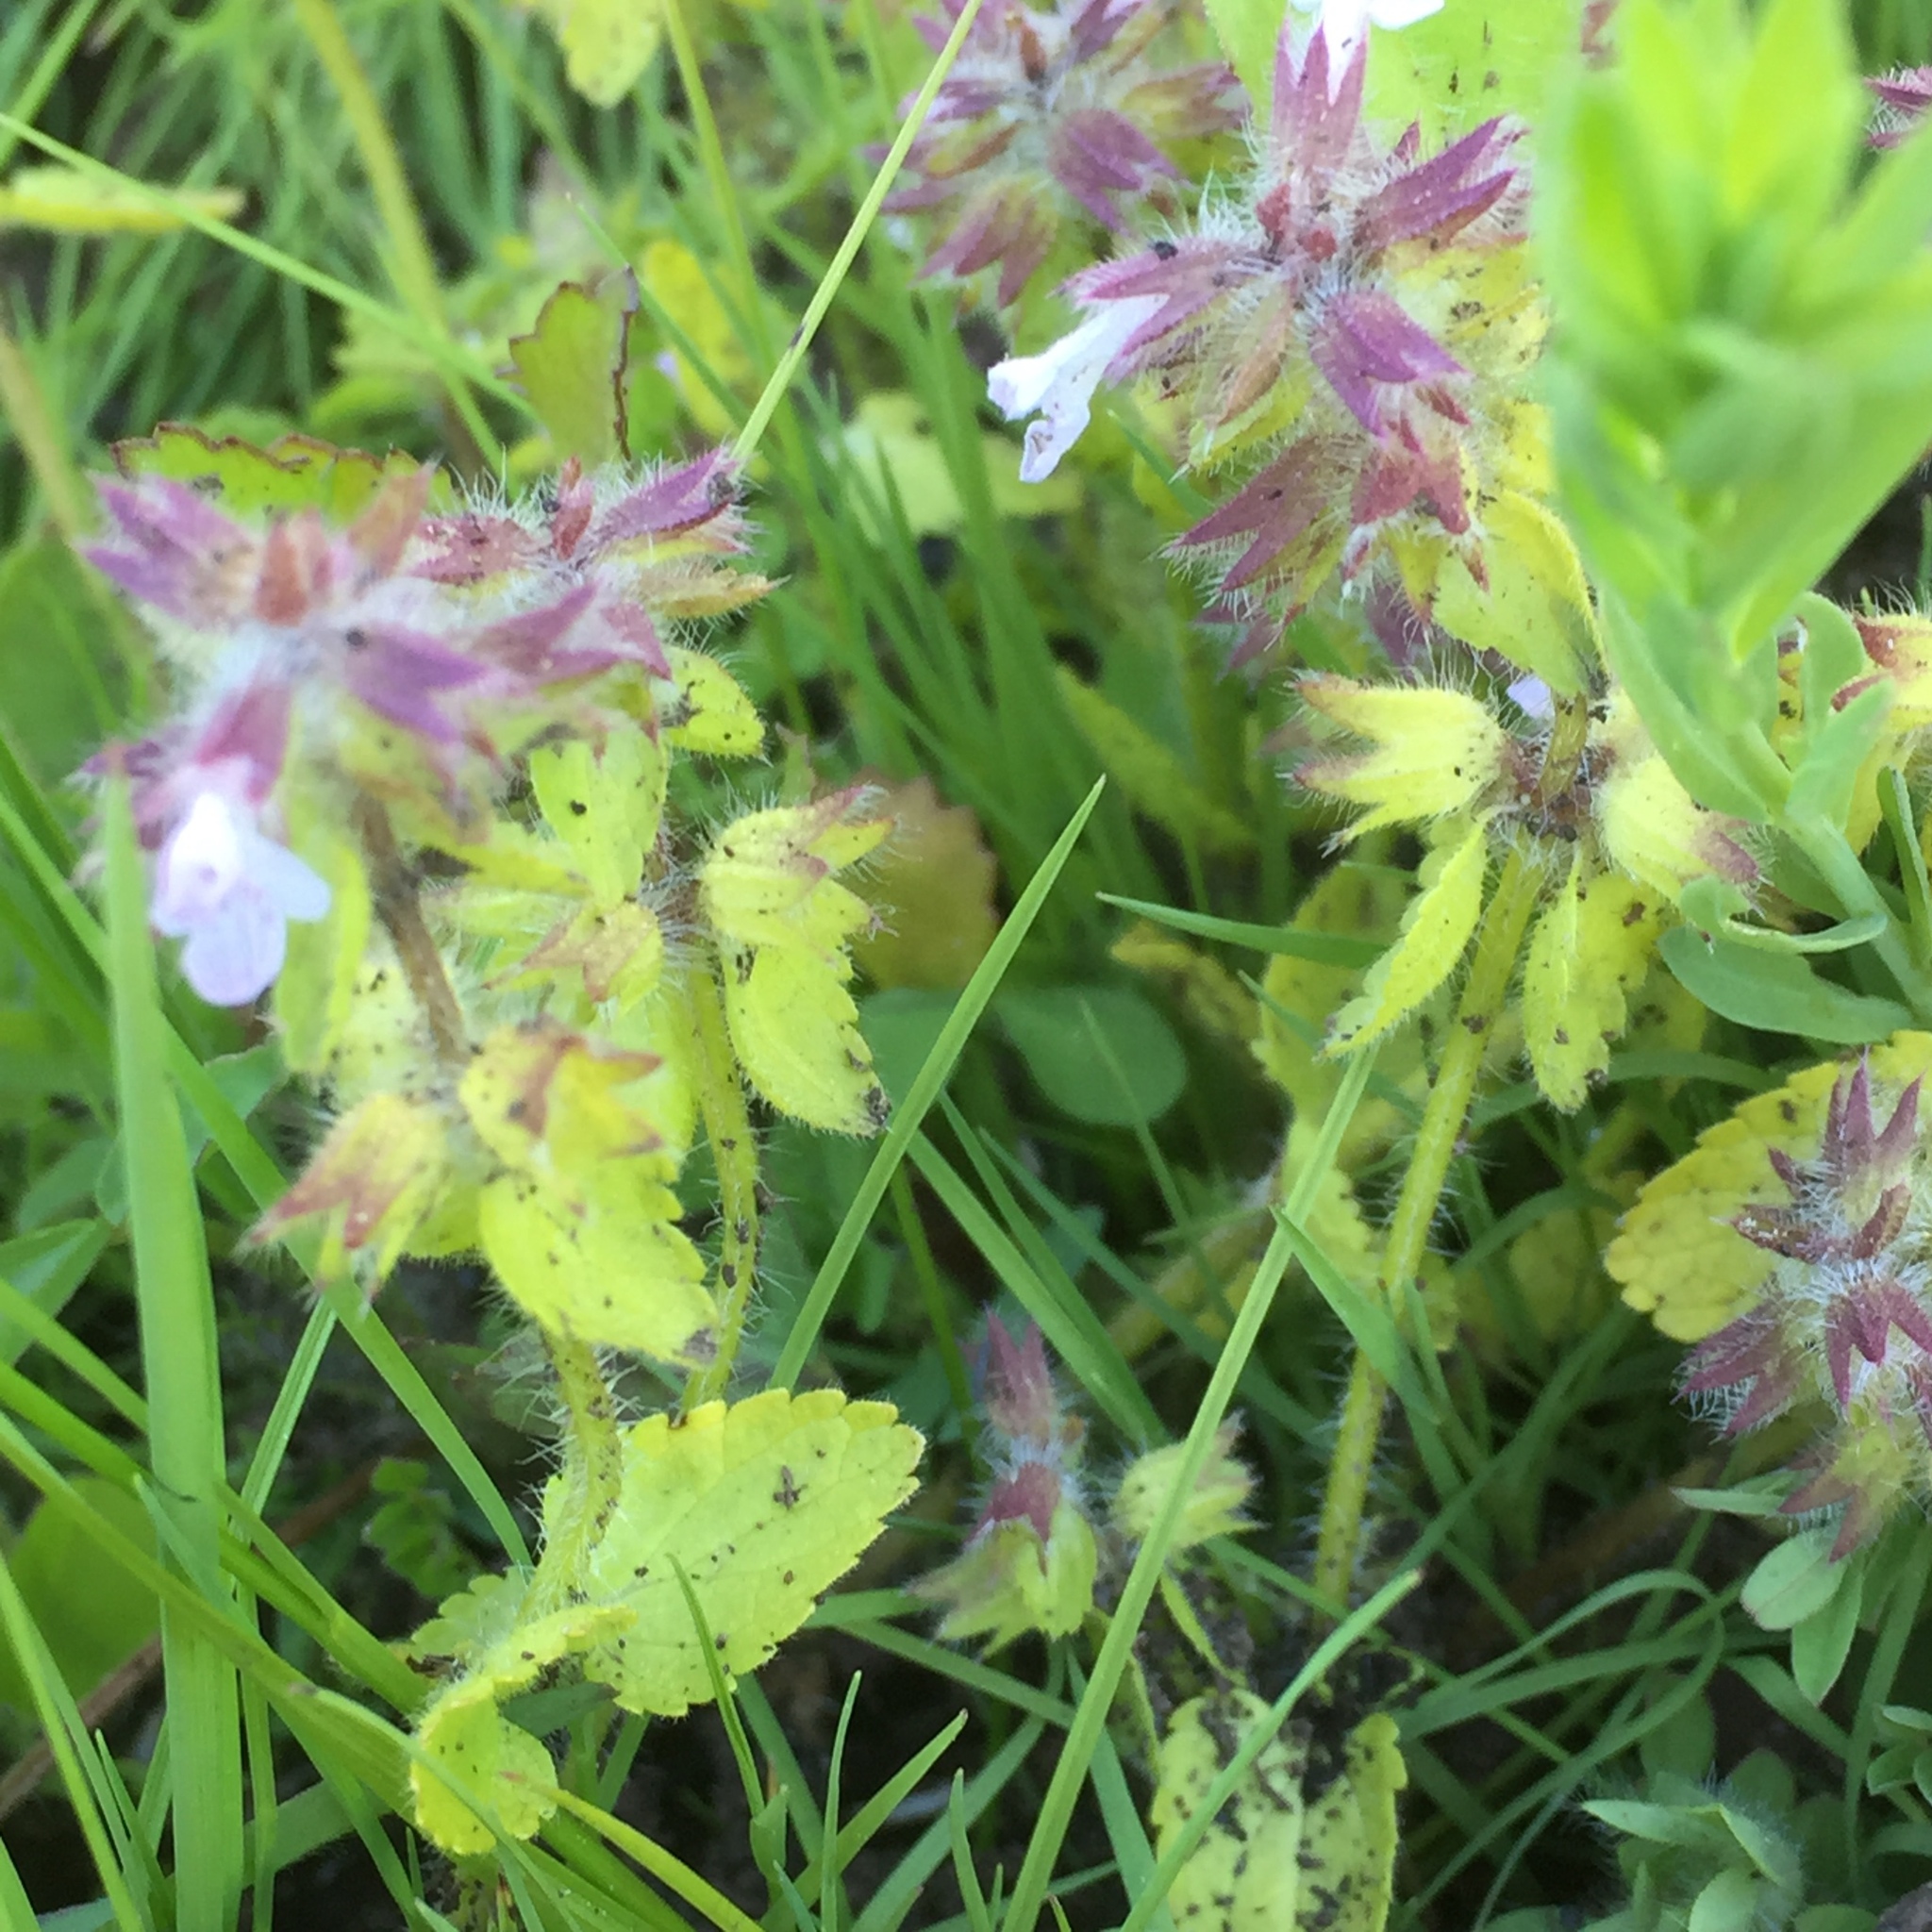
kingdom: Plantae
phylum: Tracheophyta
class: Magnoliopsida
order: Lamiales
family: Lamiaceae
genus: Stachys
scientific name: Stachys arvensis
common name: Field woundwort
